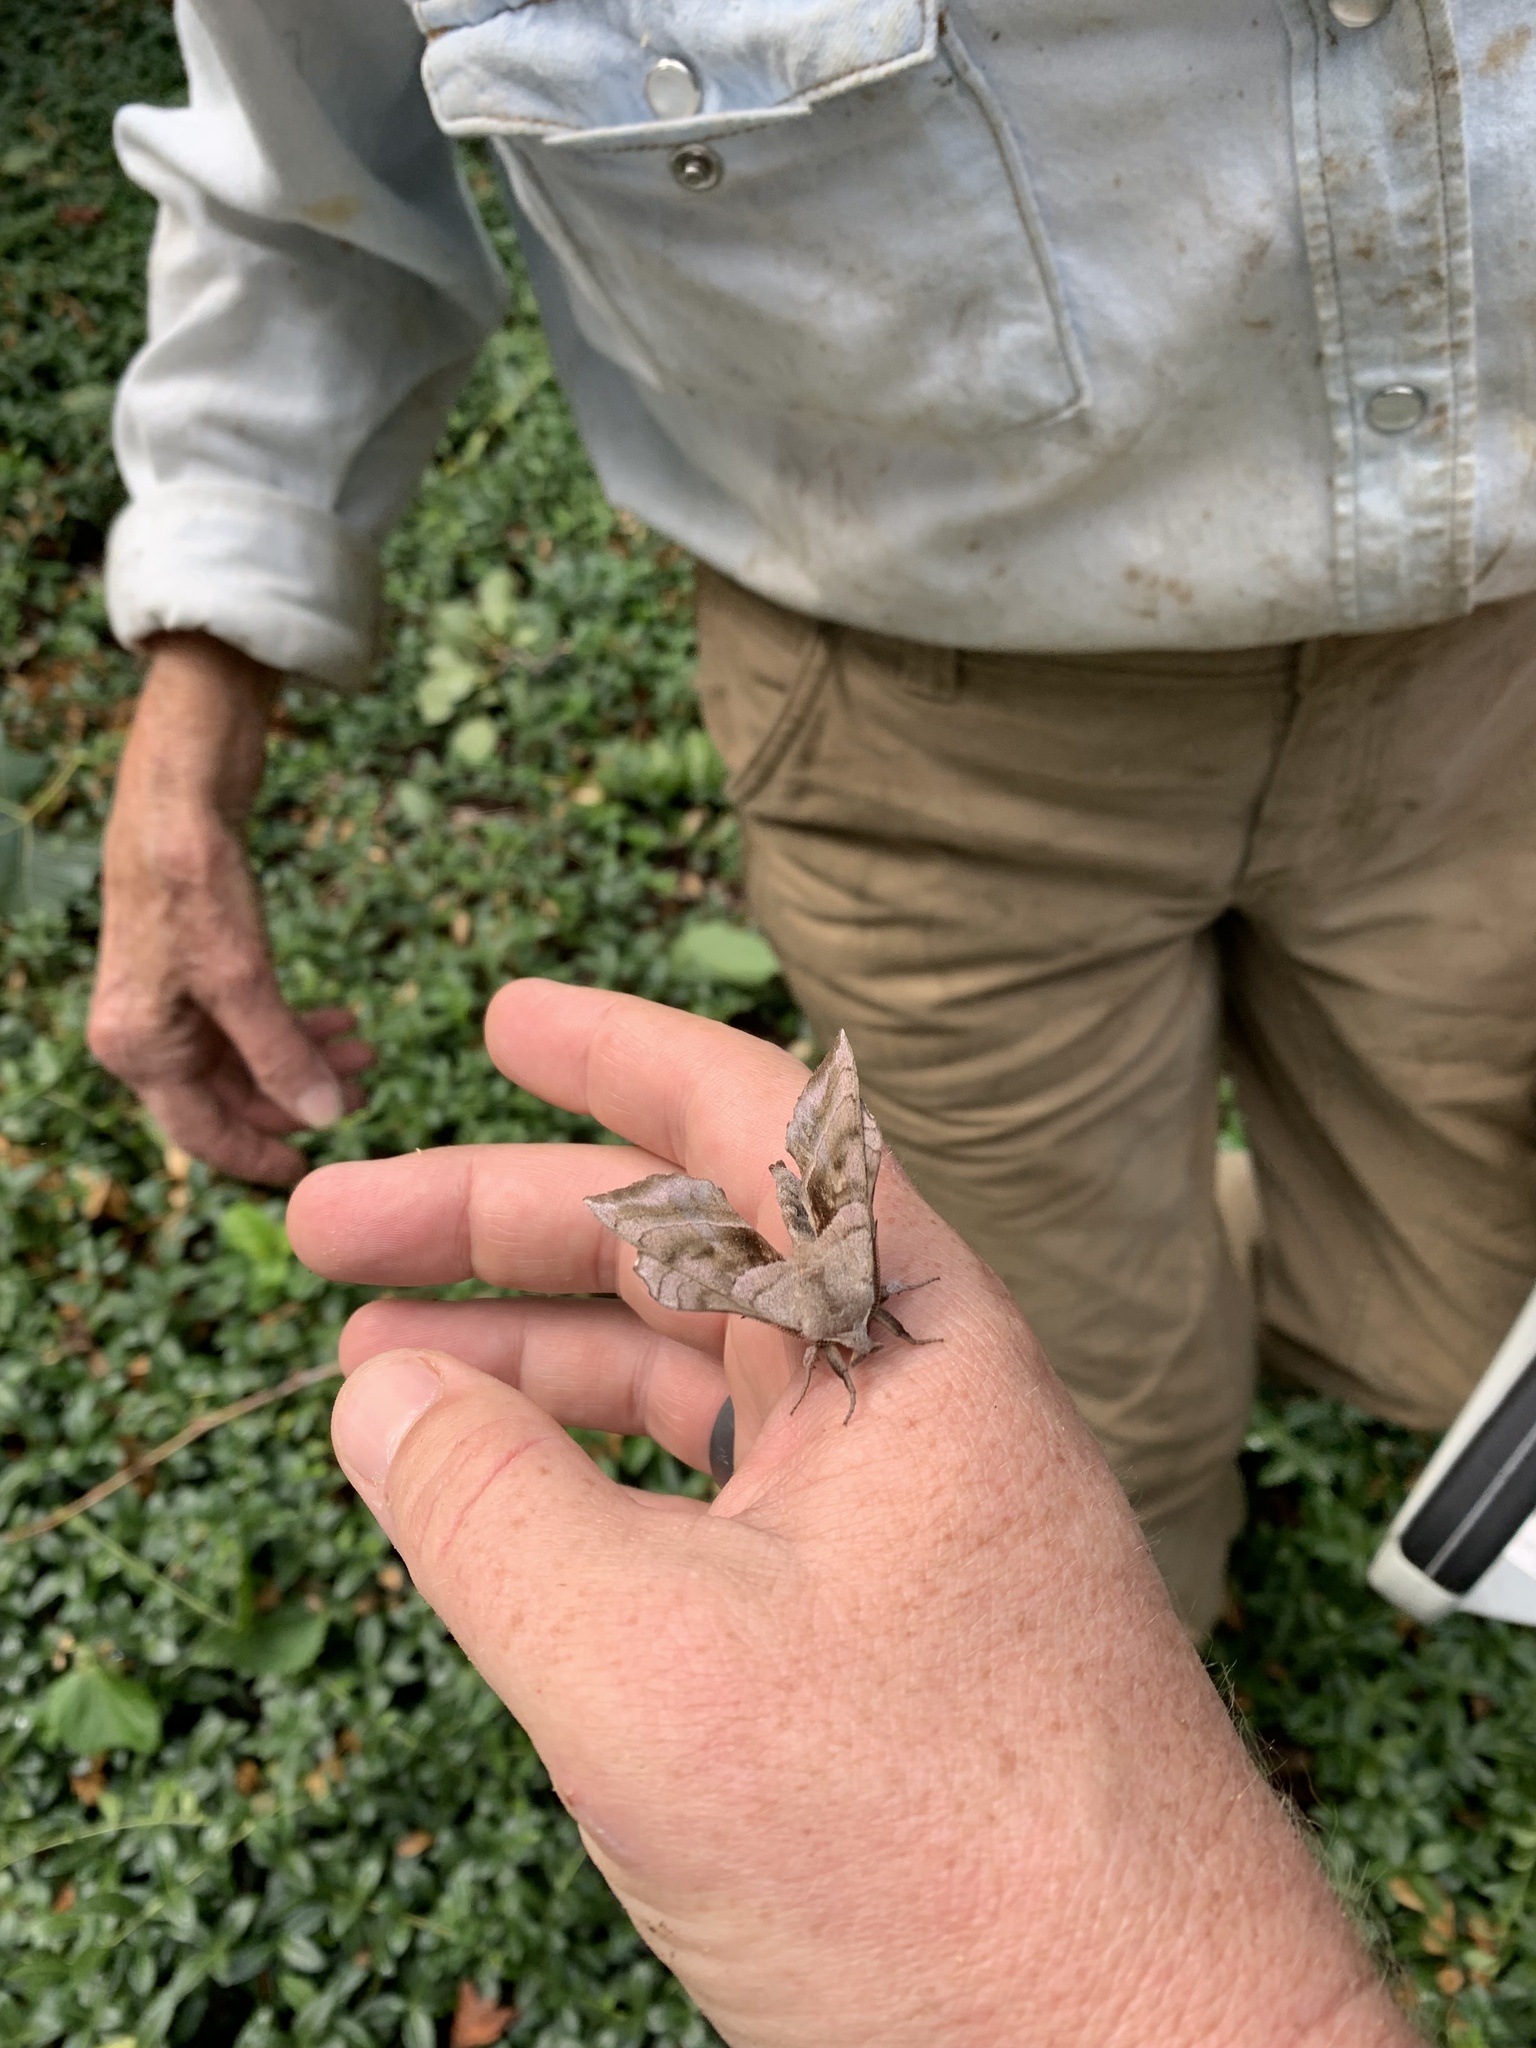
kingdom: Animalia
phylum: Arthropoda
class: Insecta
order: Lepidoptera
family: Sphingidae
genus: Amorpha
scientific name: Amorpha juglandis
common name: Walnut sphinx
